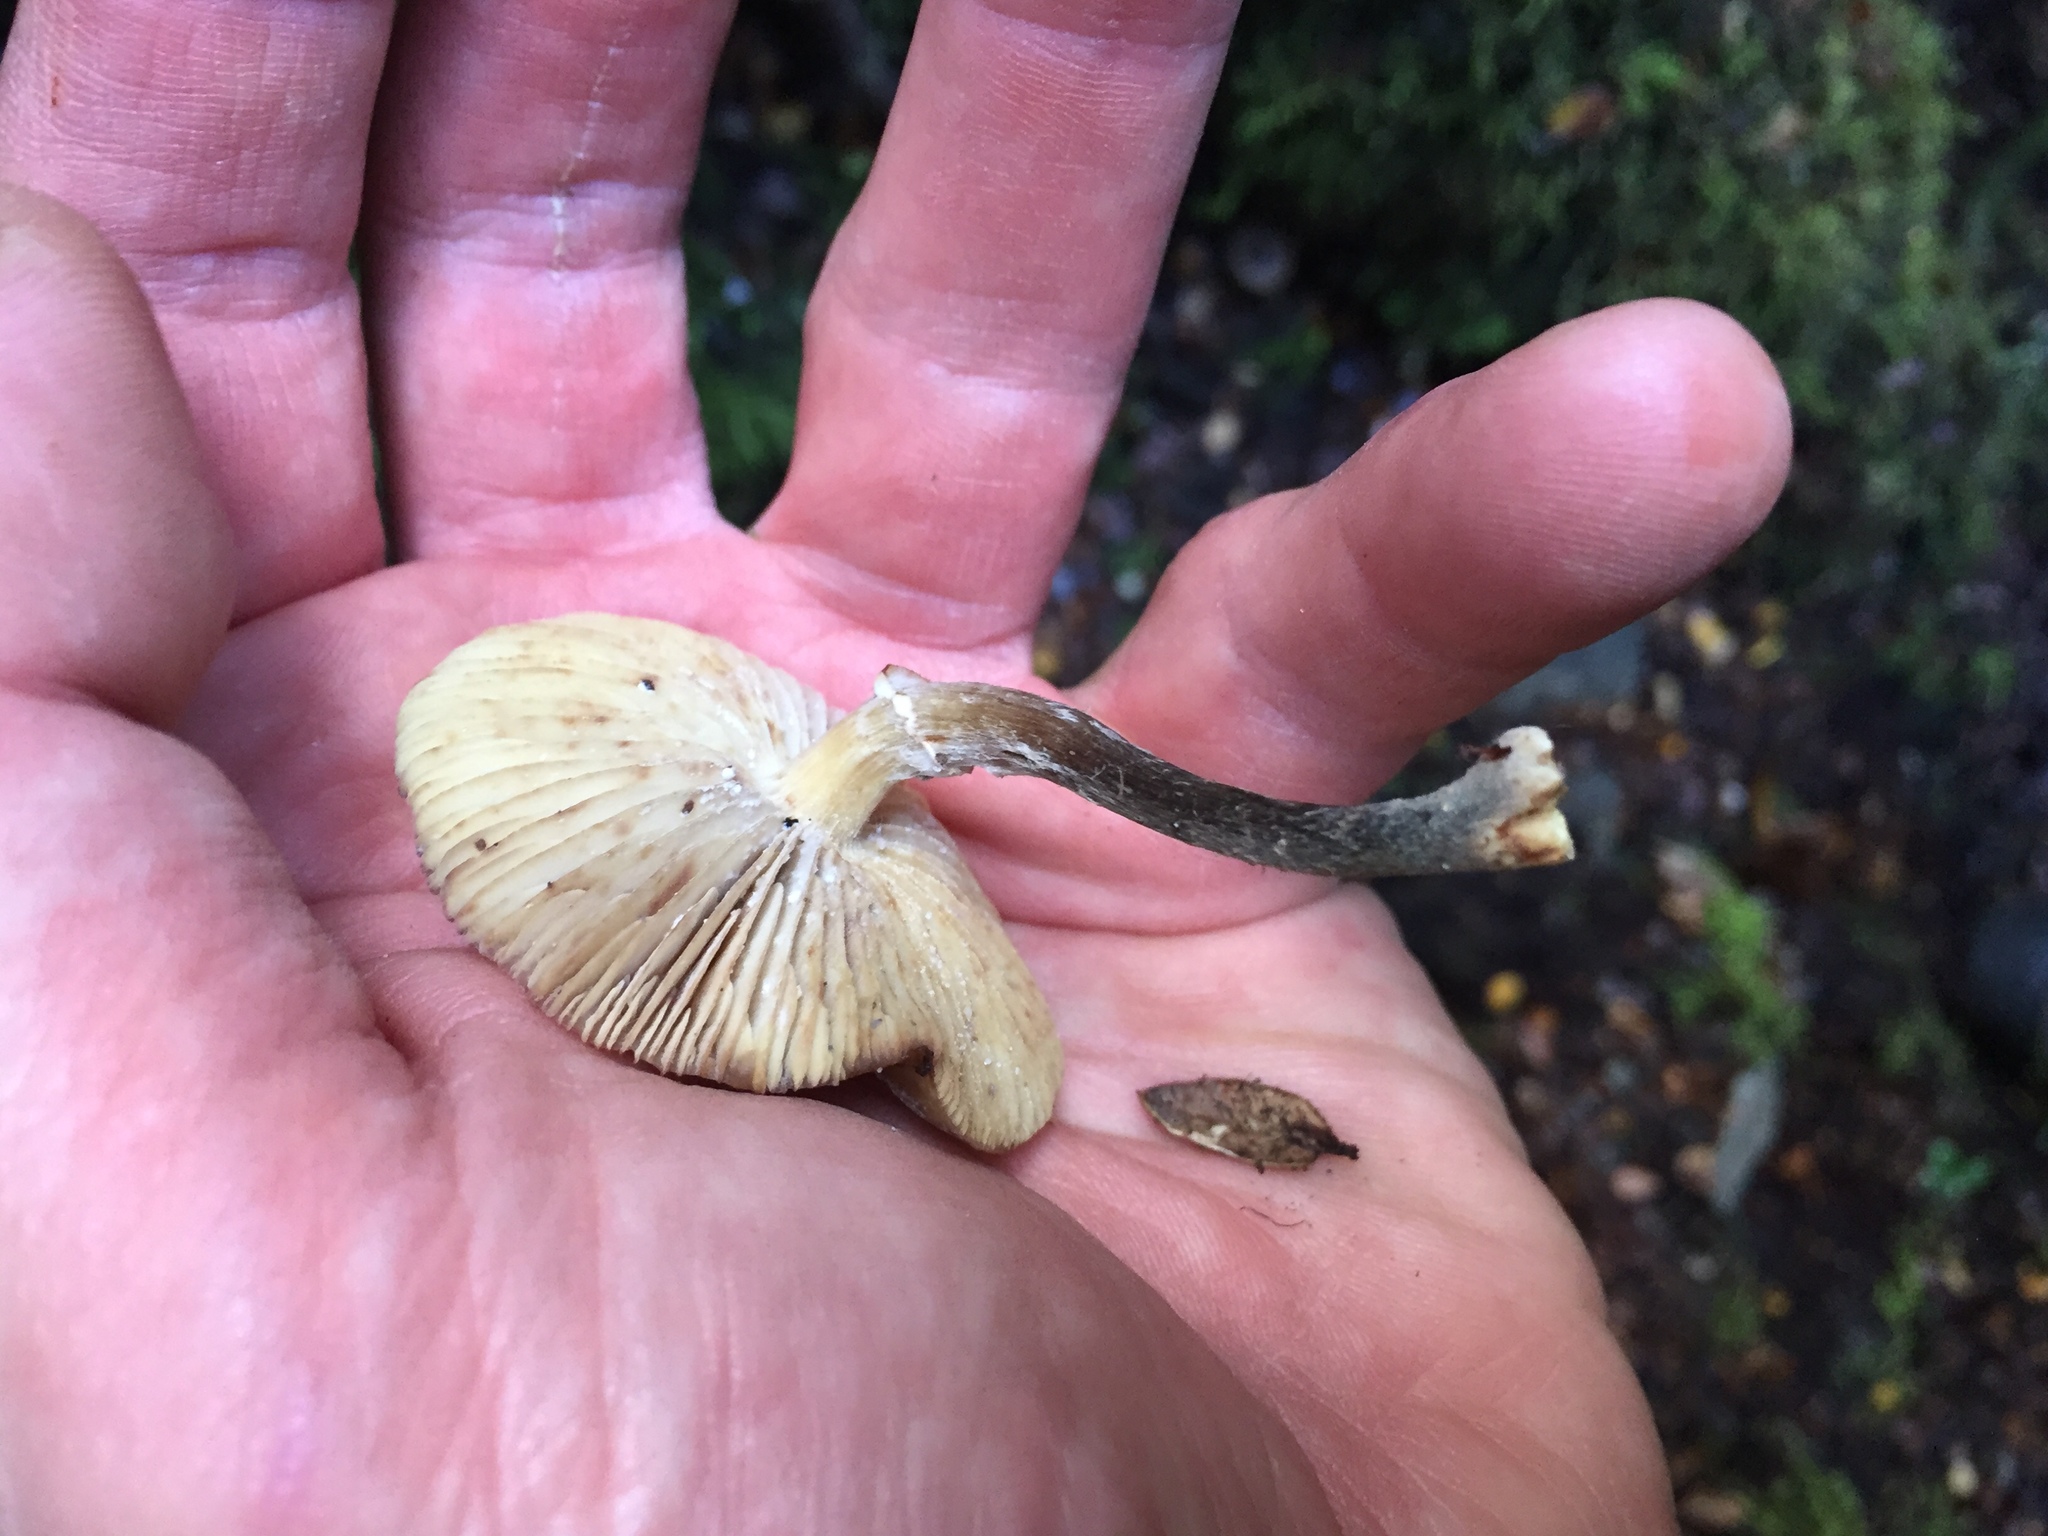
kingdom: Fungi
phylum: Basidiomycota
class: Agaricomycetes
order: Agaricales
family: Physalacriaceae
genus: Armillaria
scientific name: Armillaria novae-zelandiae
